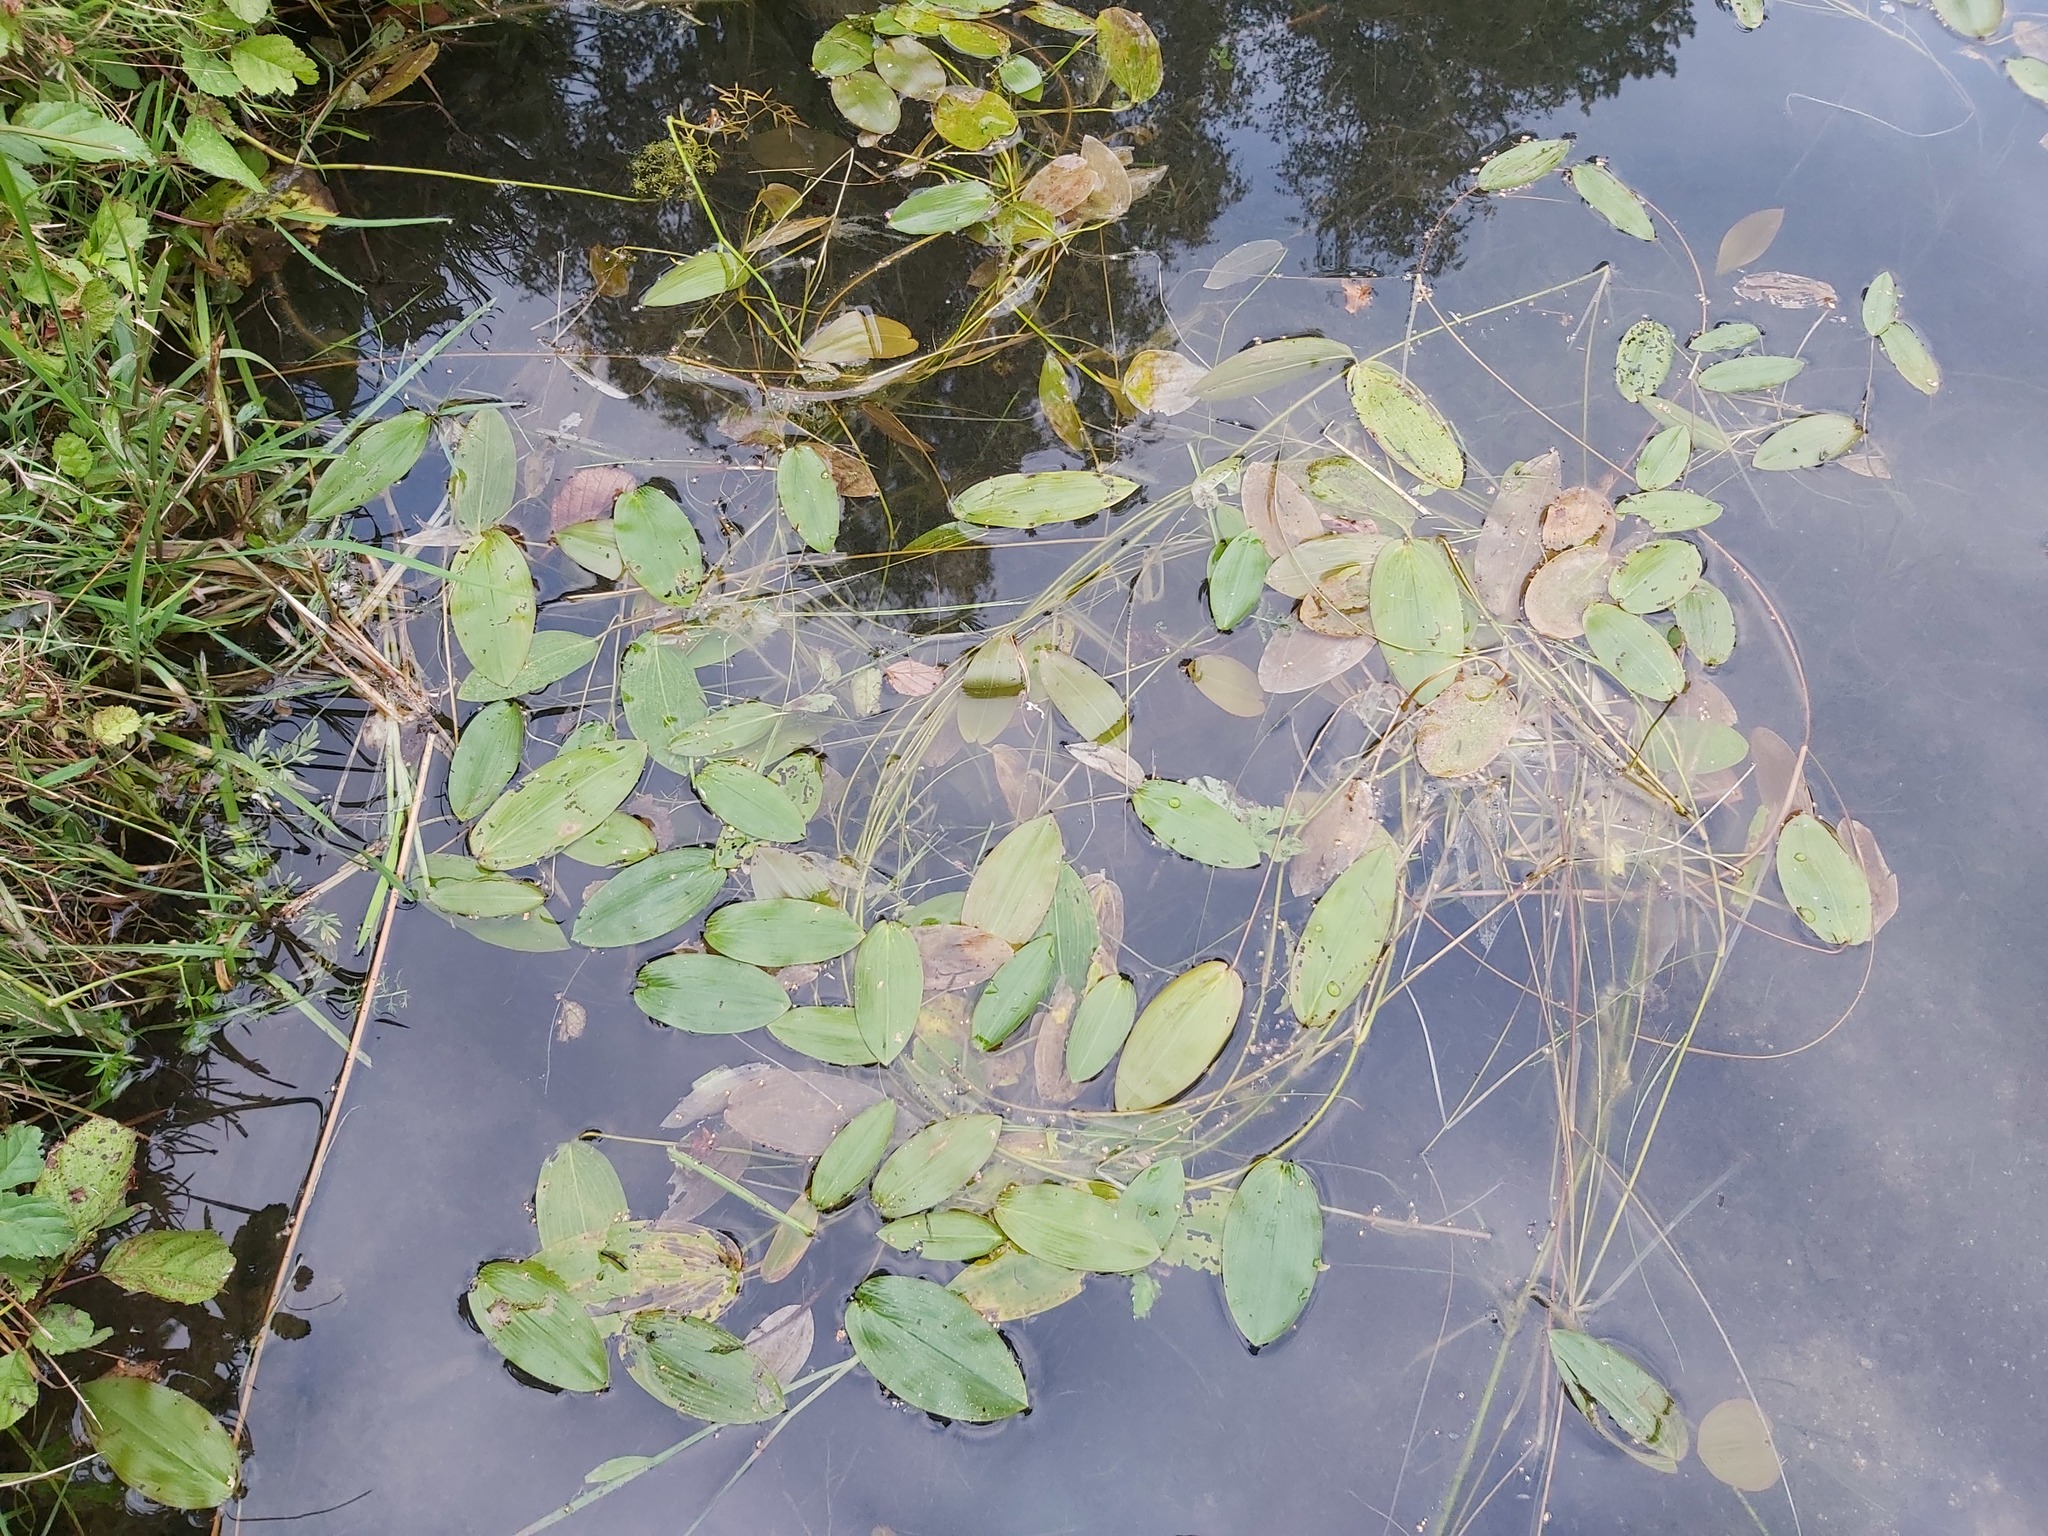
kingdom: Plantae
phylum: Tracheophyta
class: Liliopsida
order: Alismatales
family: Potamogetonaceae
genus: Potamogeton
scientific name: Potamogeton natans
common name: Broad-leaved pondweed
